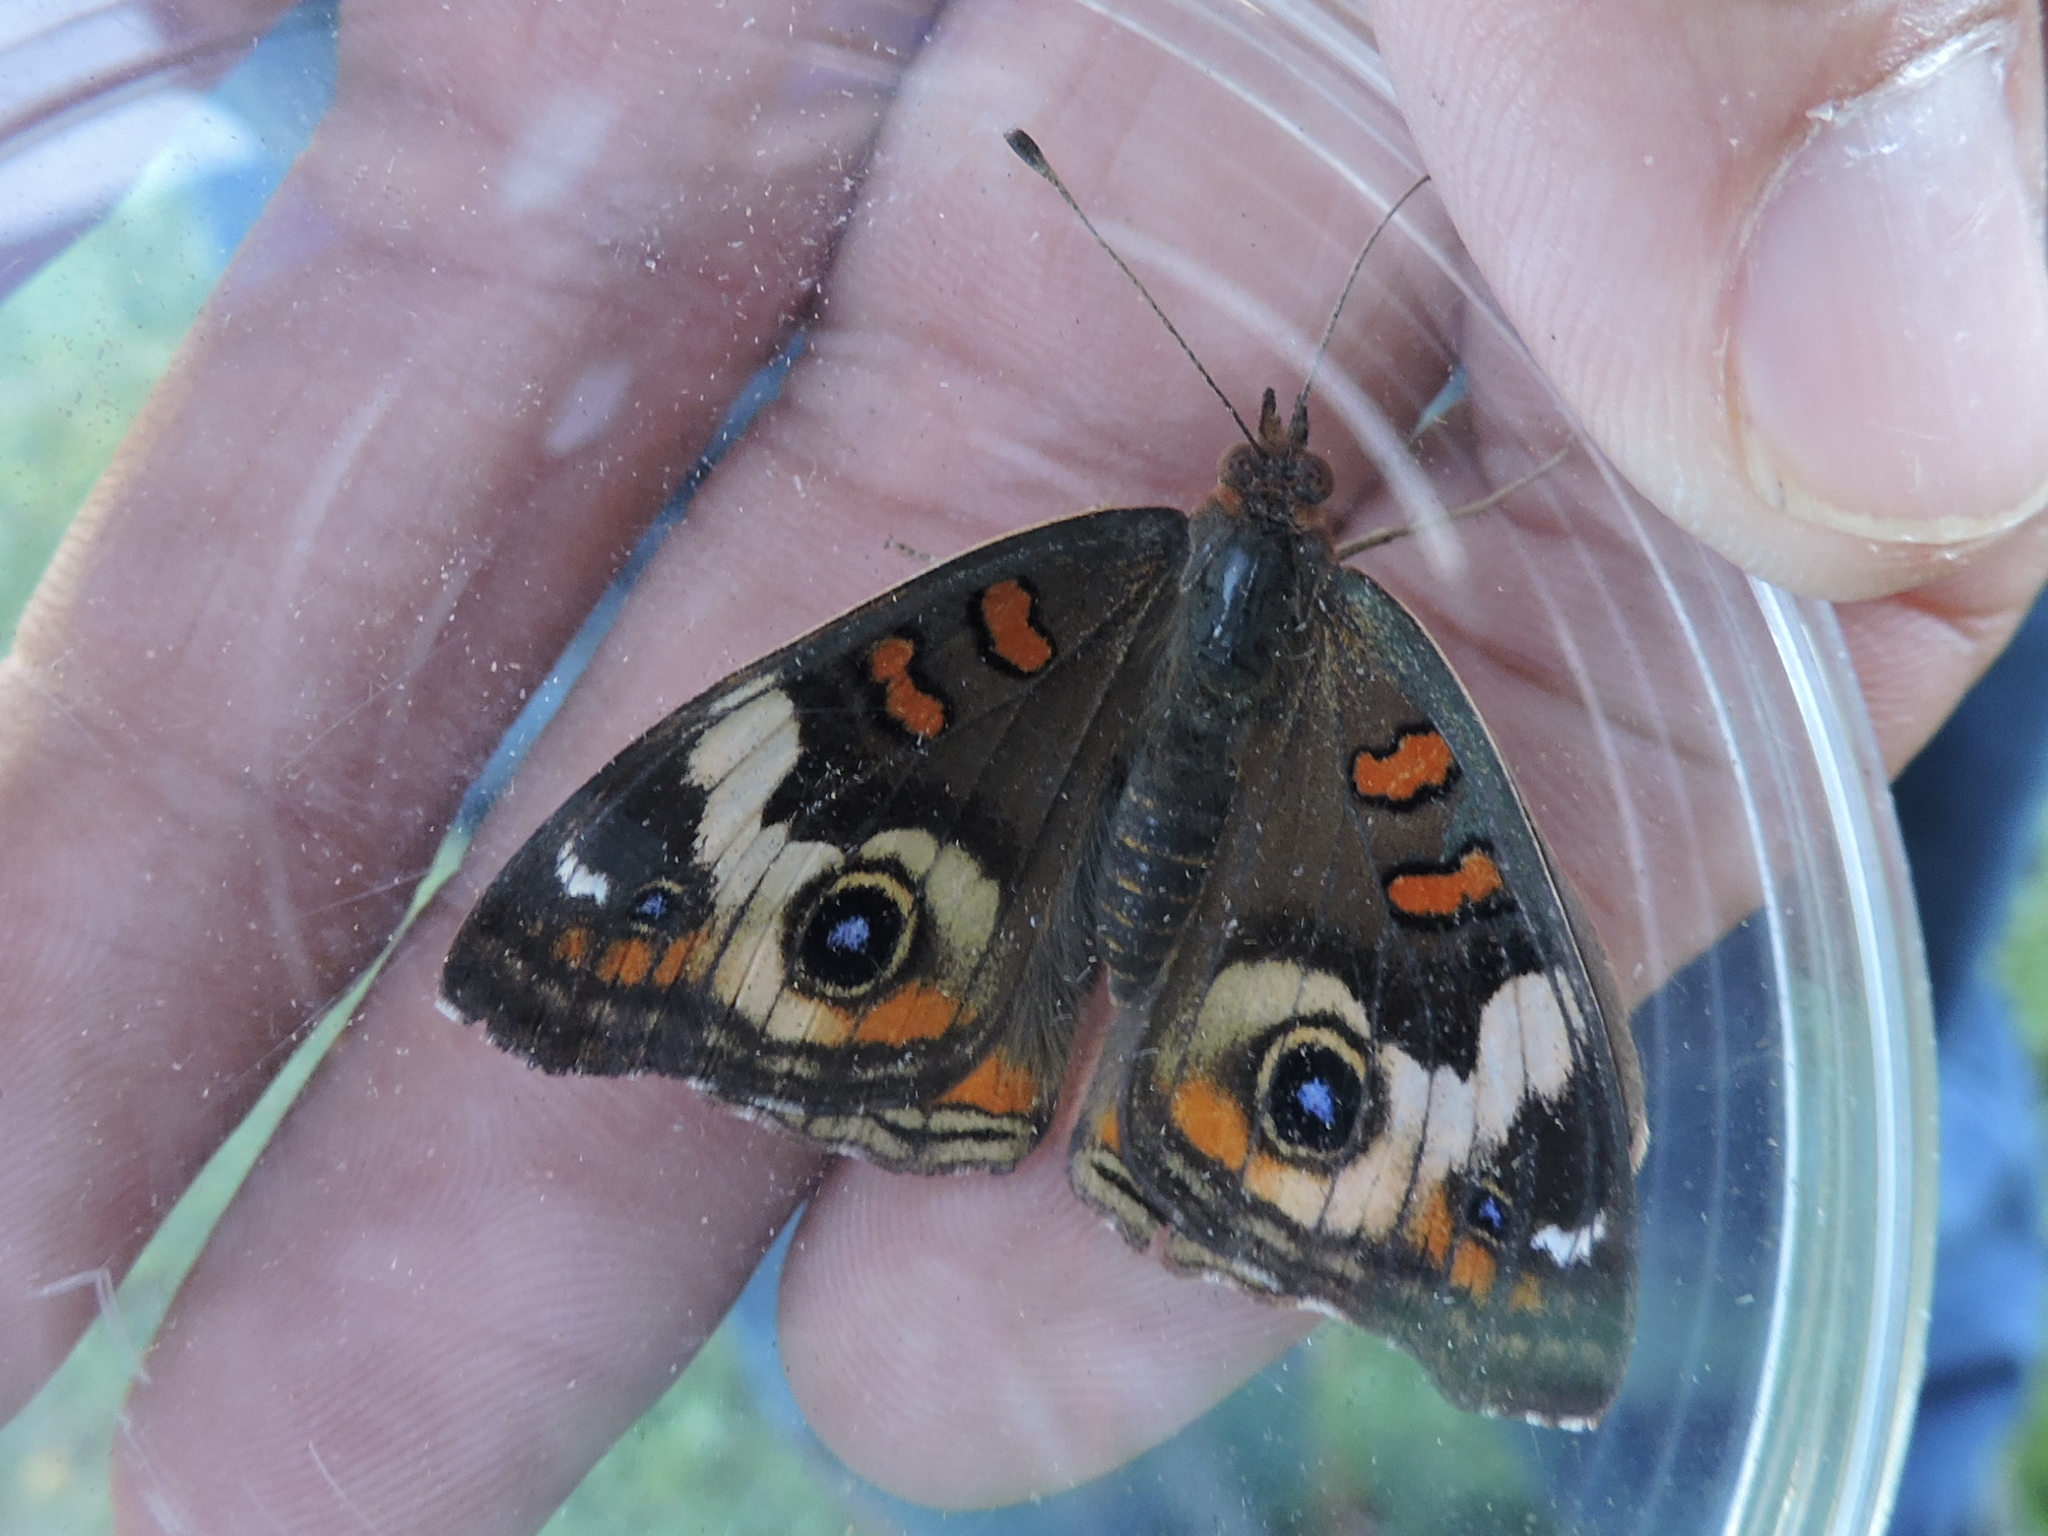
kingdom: Animalia
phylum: Arthropoda
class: Insecta
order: Lepidoptera
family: Nymphalidae
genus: Junonia
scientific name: Junonia coenia
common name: Common buckeye
